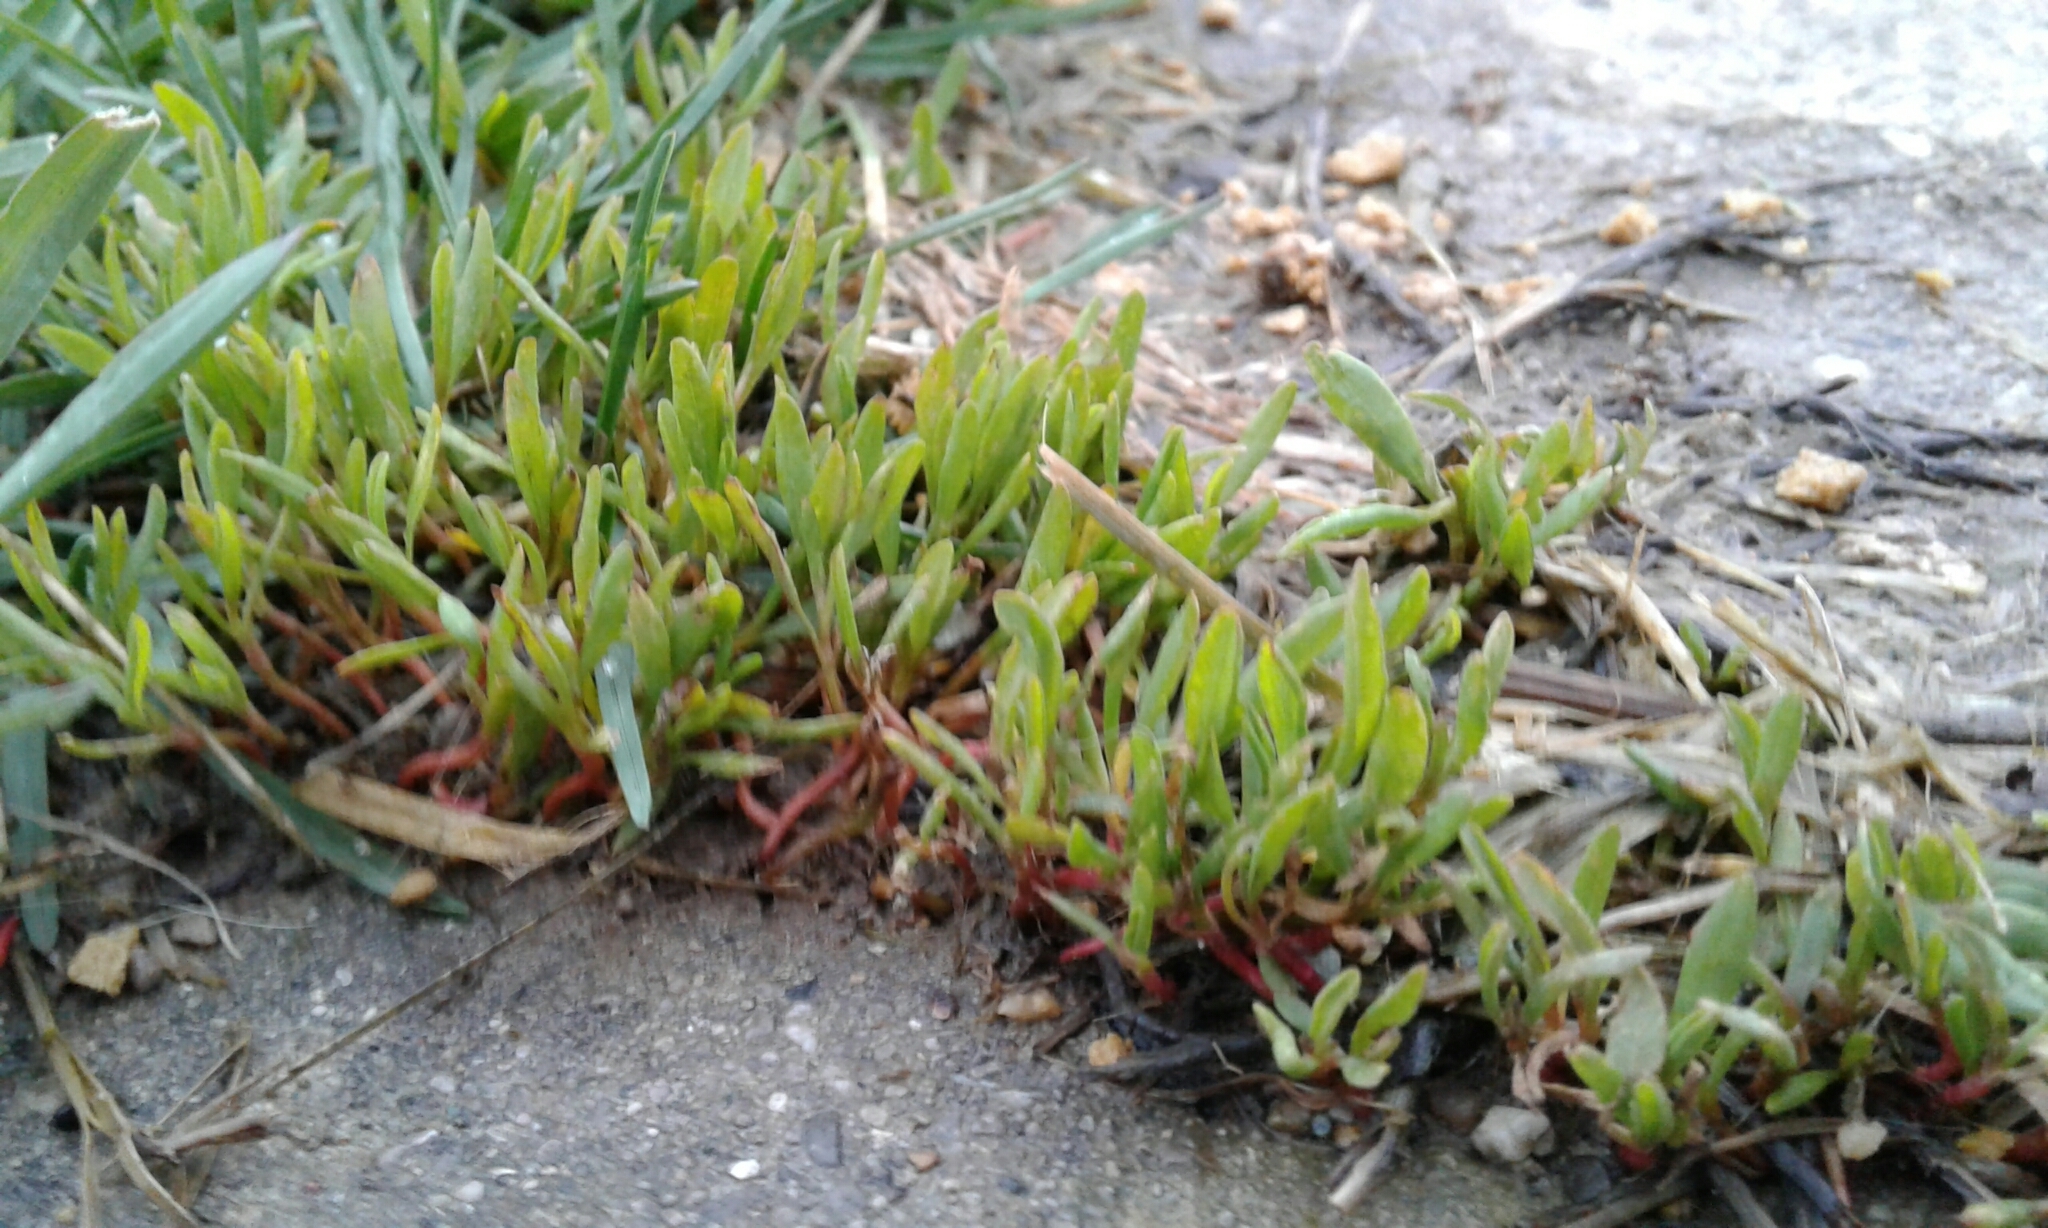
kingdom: Plantae
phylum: Tracheophyta
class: Magnoliopsida
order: Caryophyllales
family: Polygonaceae
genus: Polygonum
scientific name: Polygonum aviculare
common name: Prostrate knotweed
